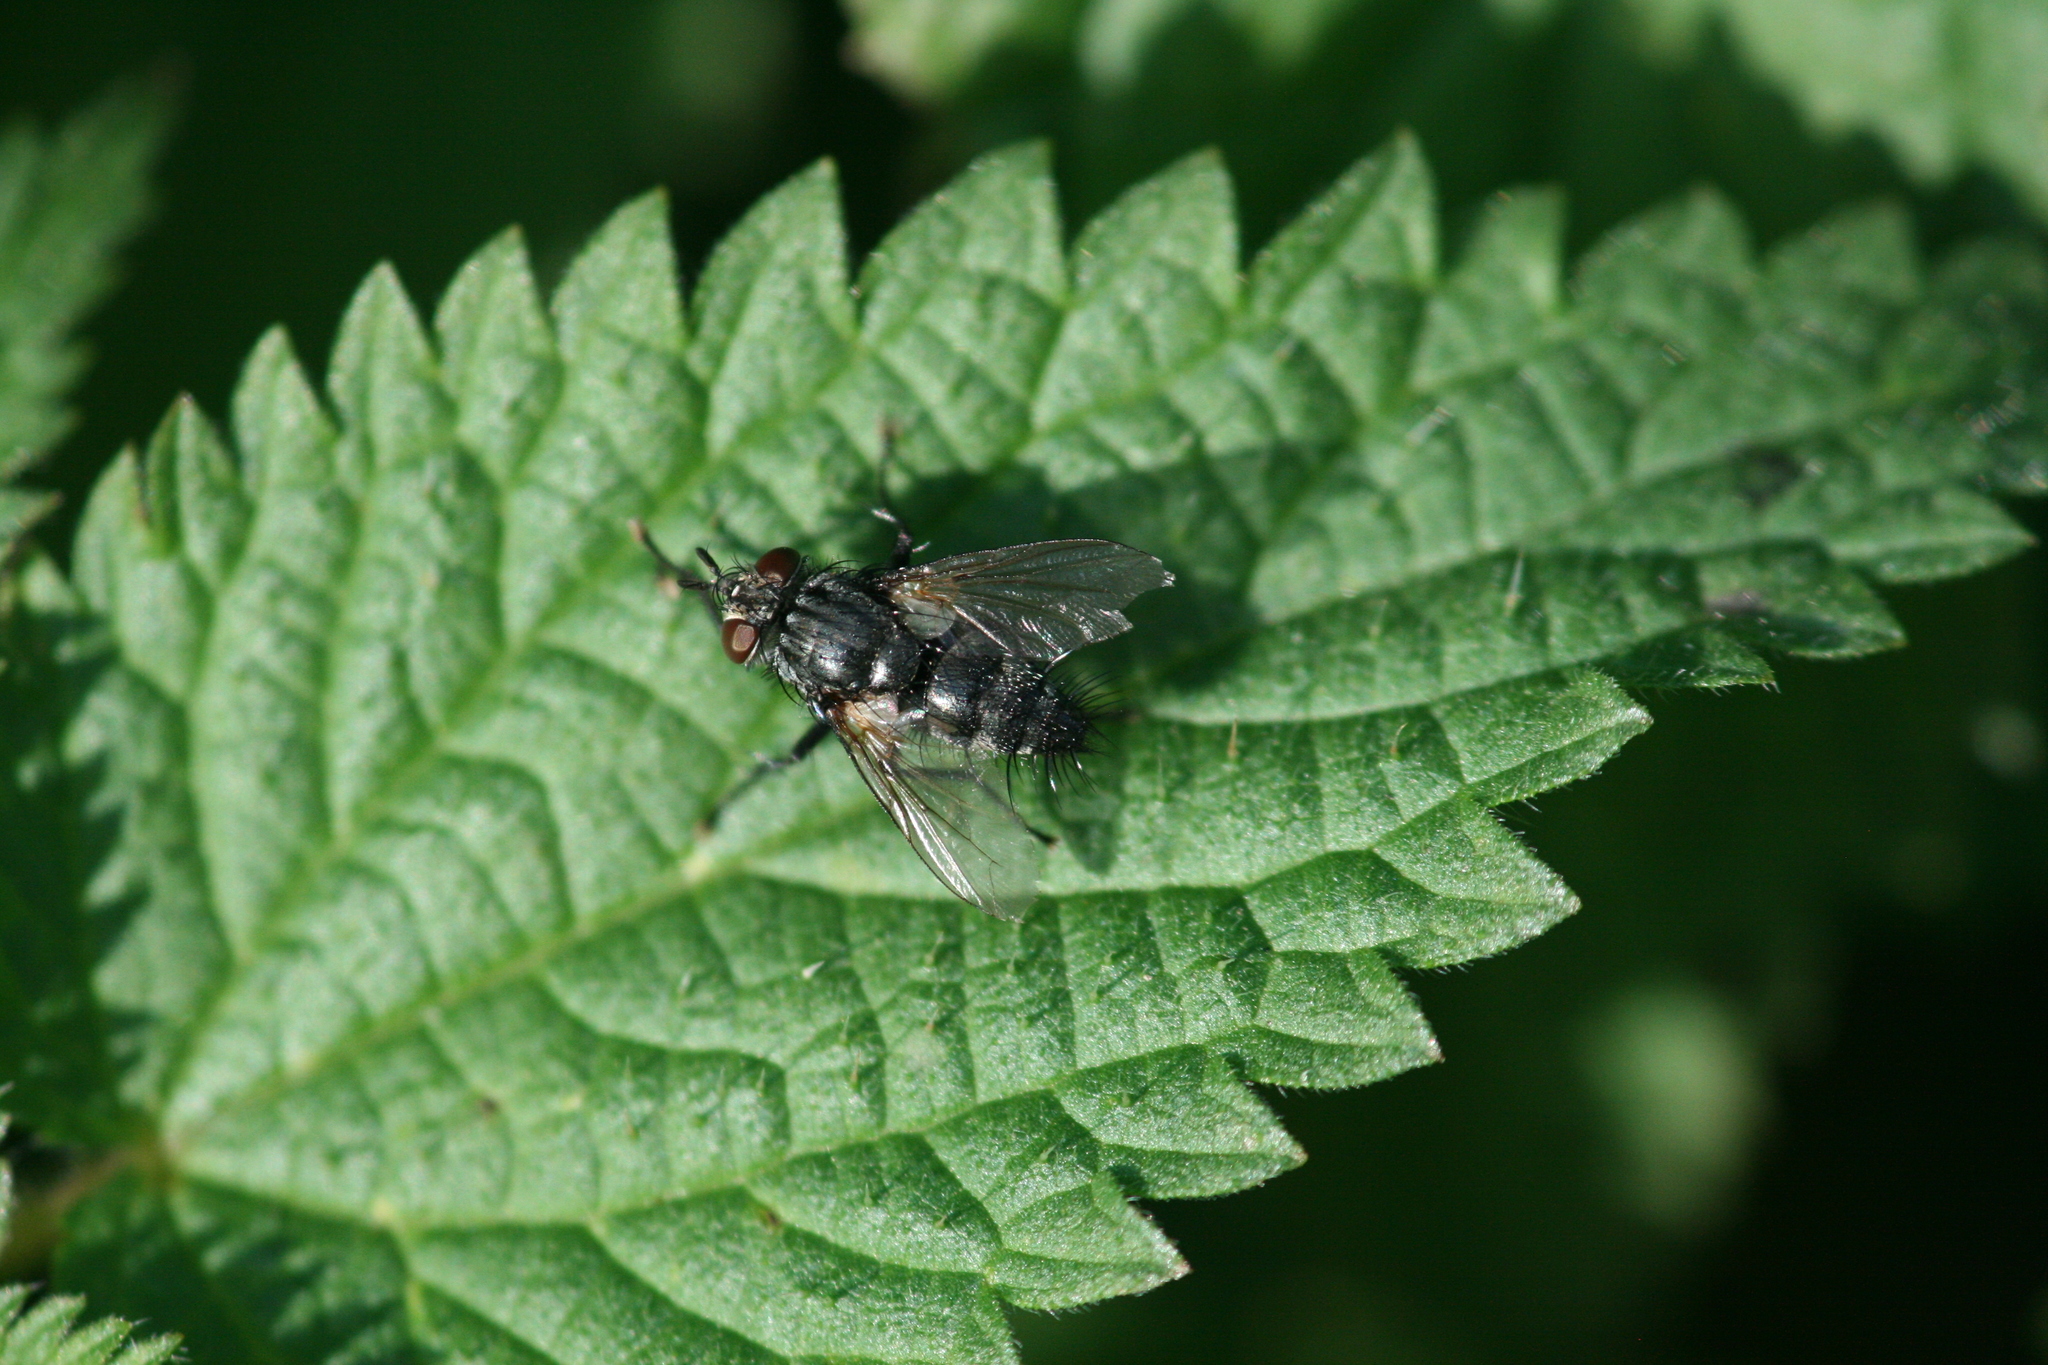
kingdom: Animalia
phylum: Arthropoda
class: Insecta
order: Diptera
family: Tachinidae
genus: Voria
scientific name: Voria ruralis
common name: Parasitic fly
